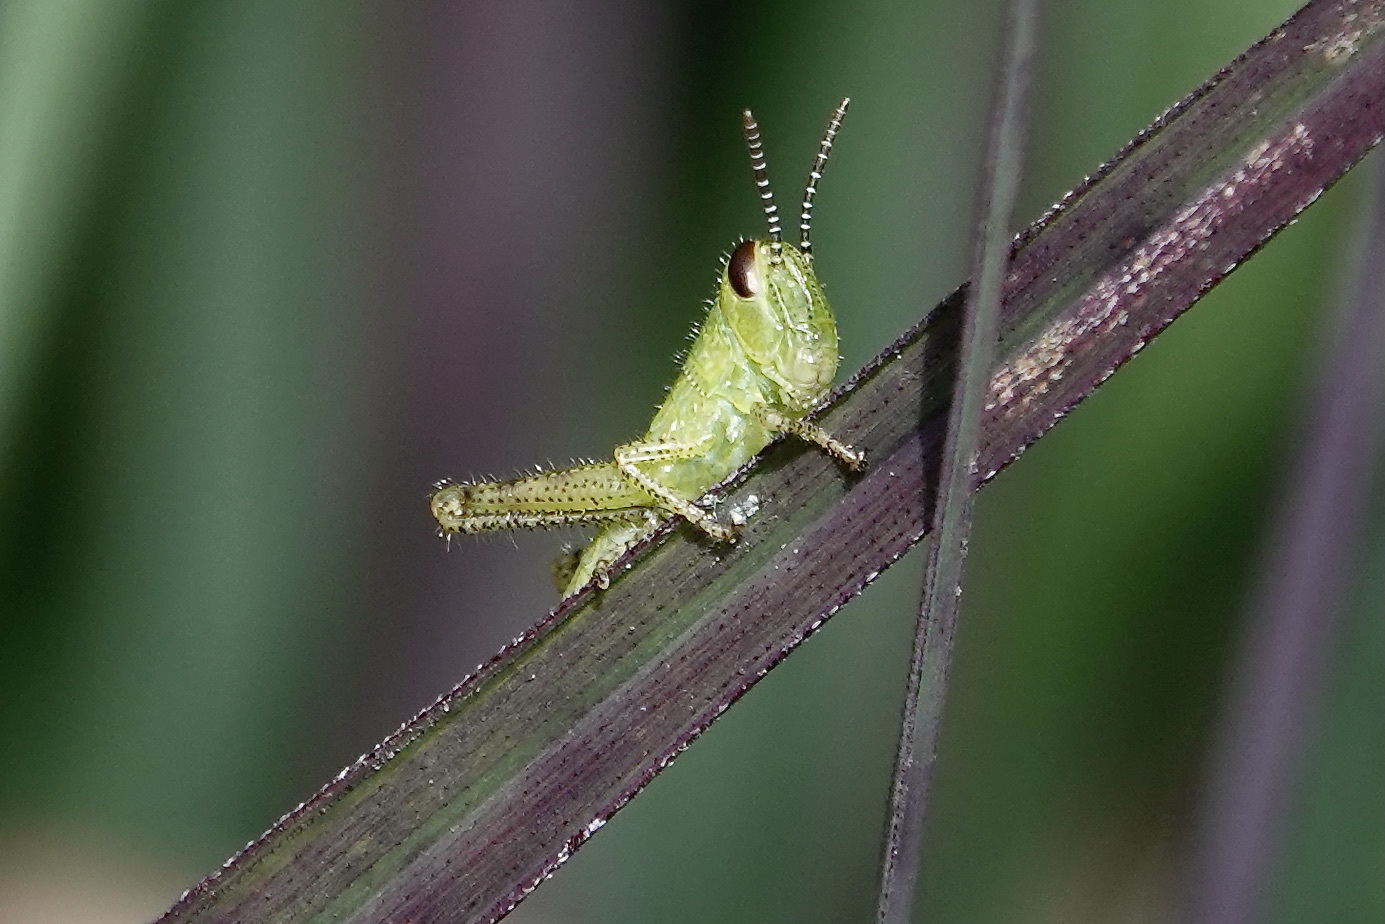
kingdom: Animalia
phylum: Arthropoda
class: Insecta
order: Orthoptera
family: Acrididae
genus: Schistocerca
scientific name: Schistocerca americana
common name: American bird locust
